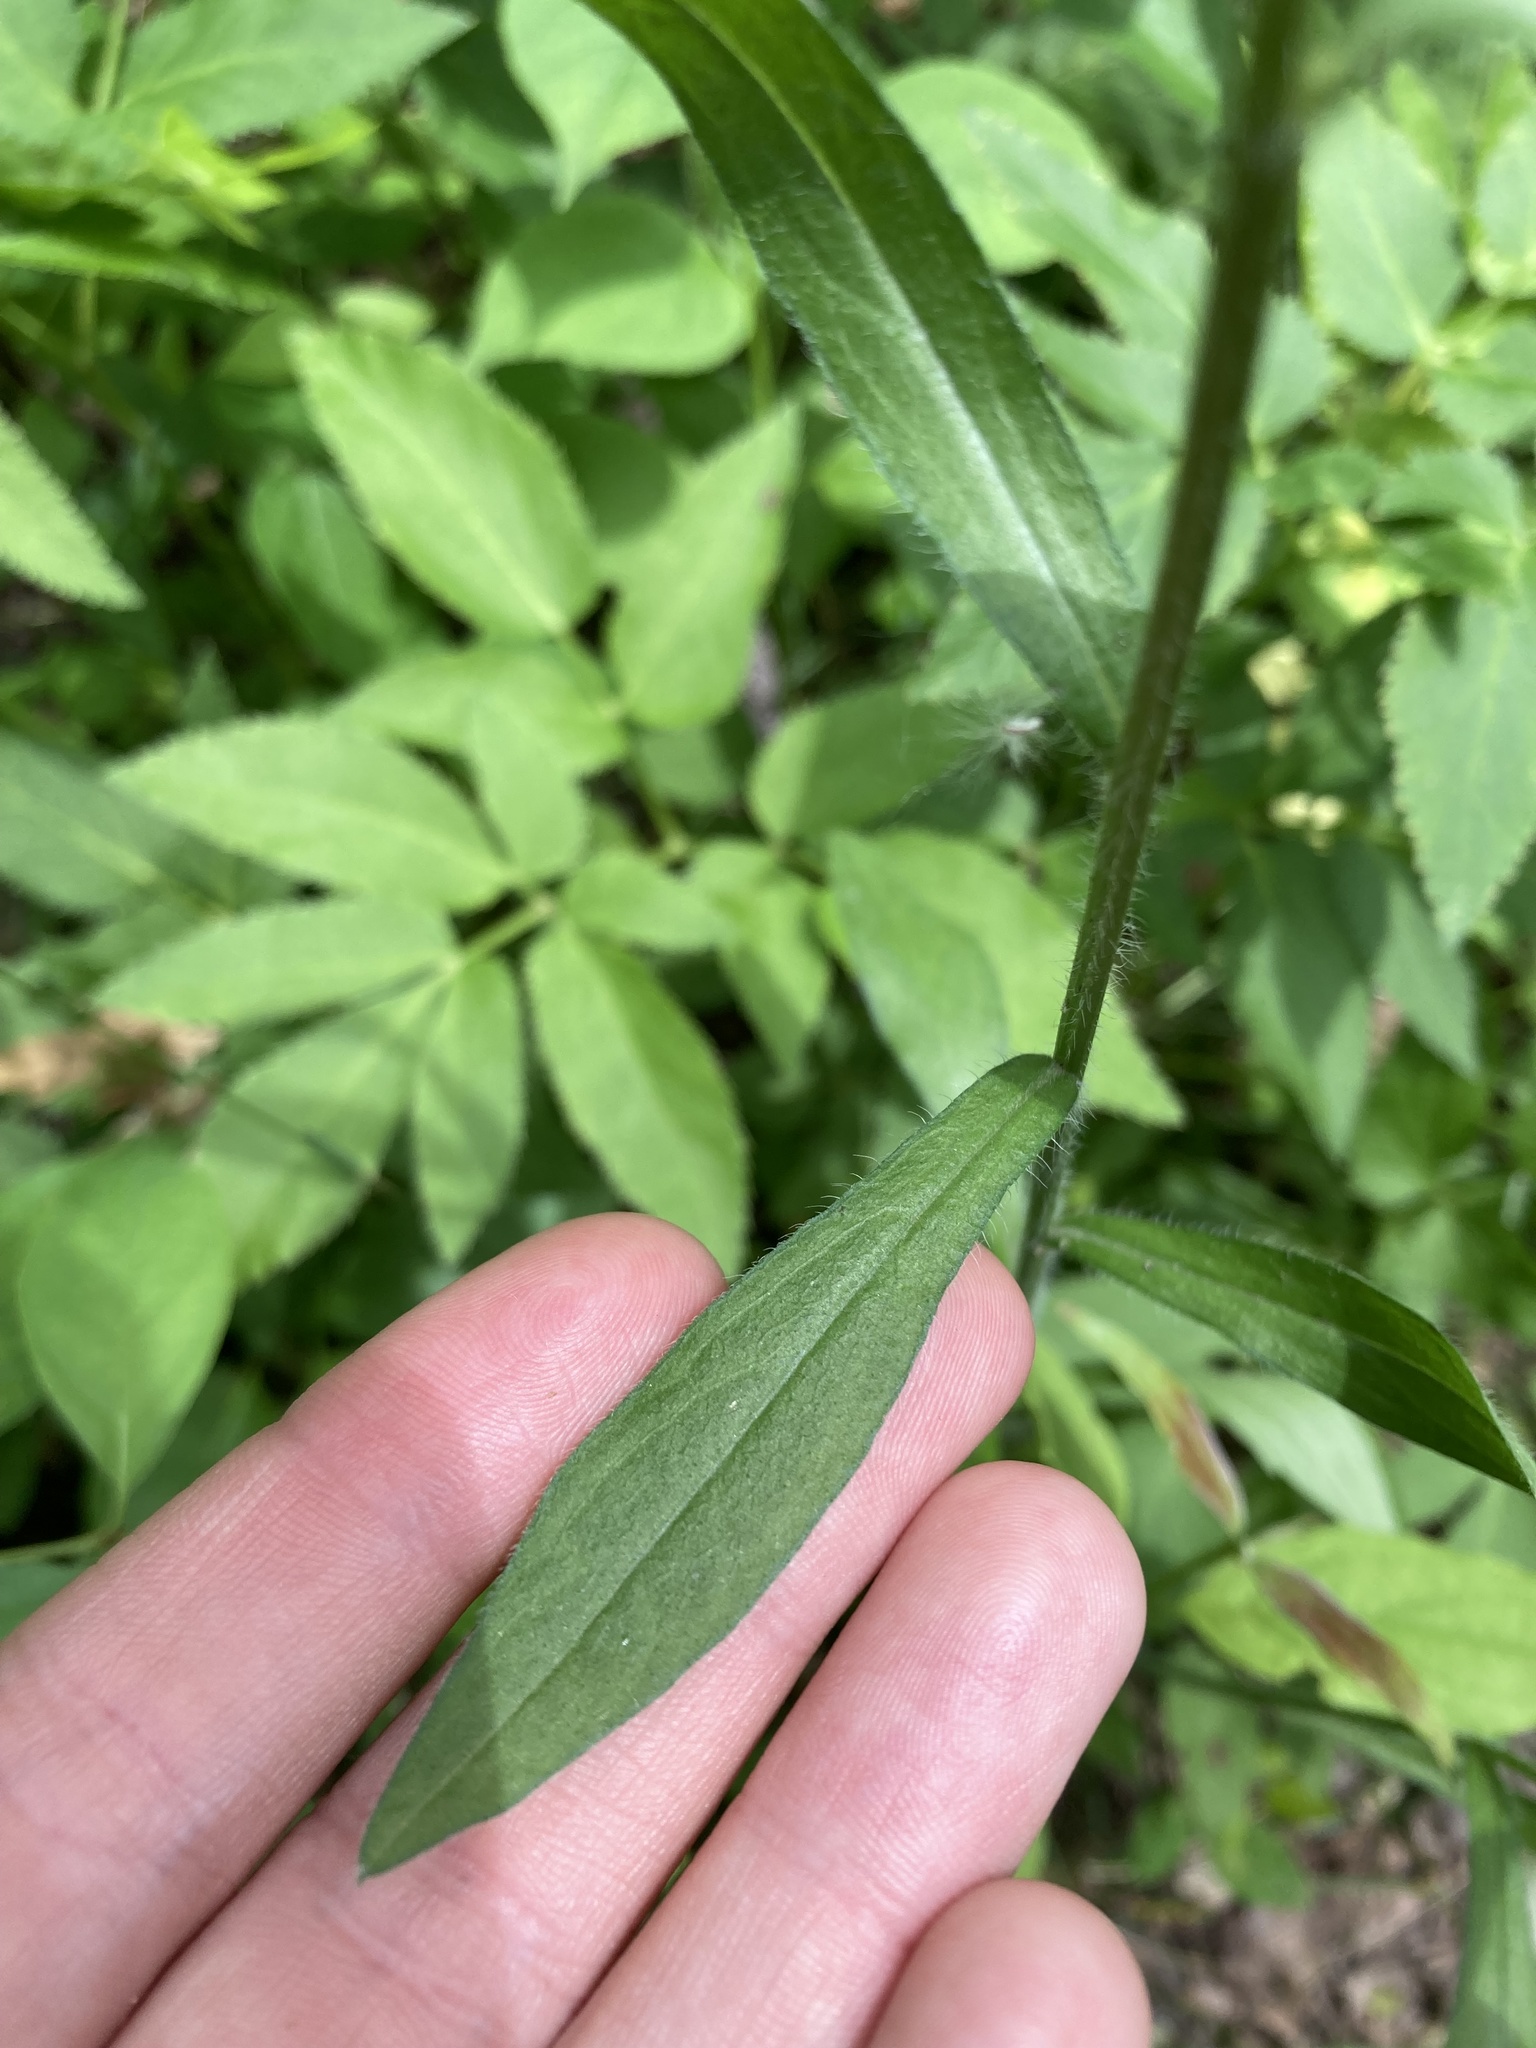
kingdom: Plantae
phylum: Tracheophyta
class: Magnoliopsida
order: Asterales
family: Asteraceae
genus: Erigeron
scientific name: Erigeron strigosus
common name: Common eastern fleabane
